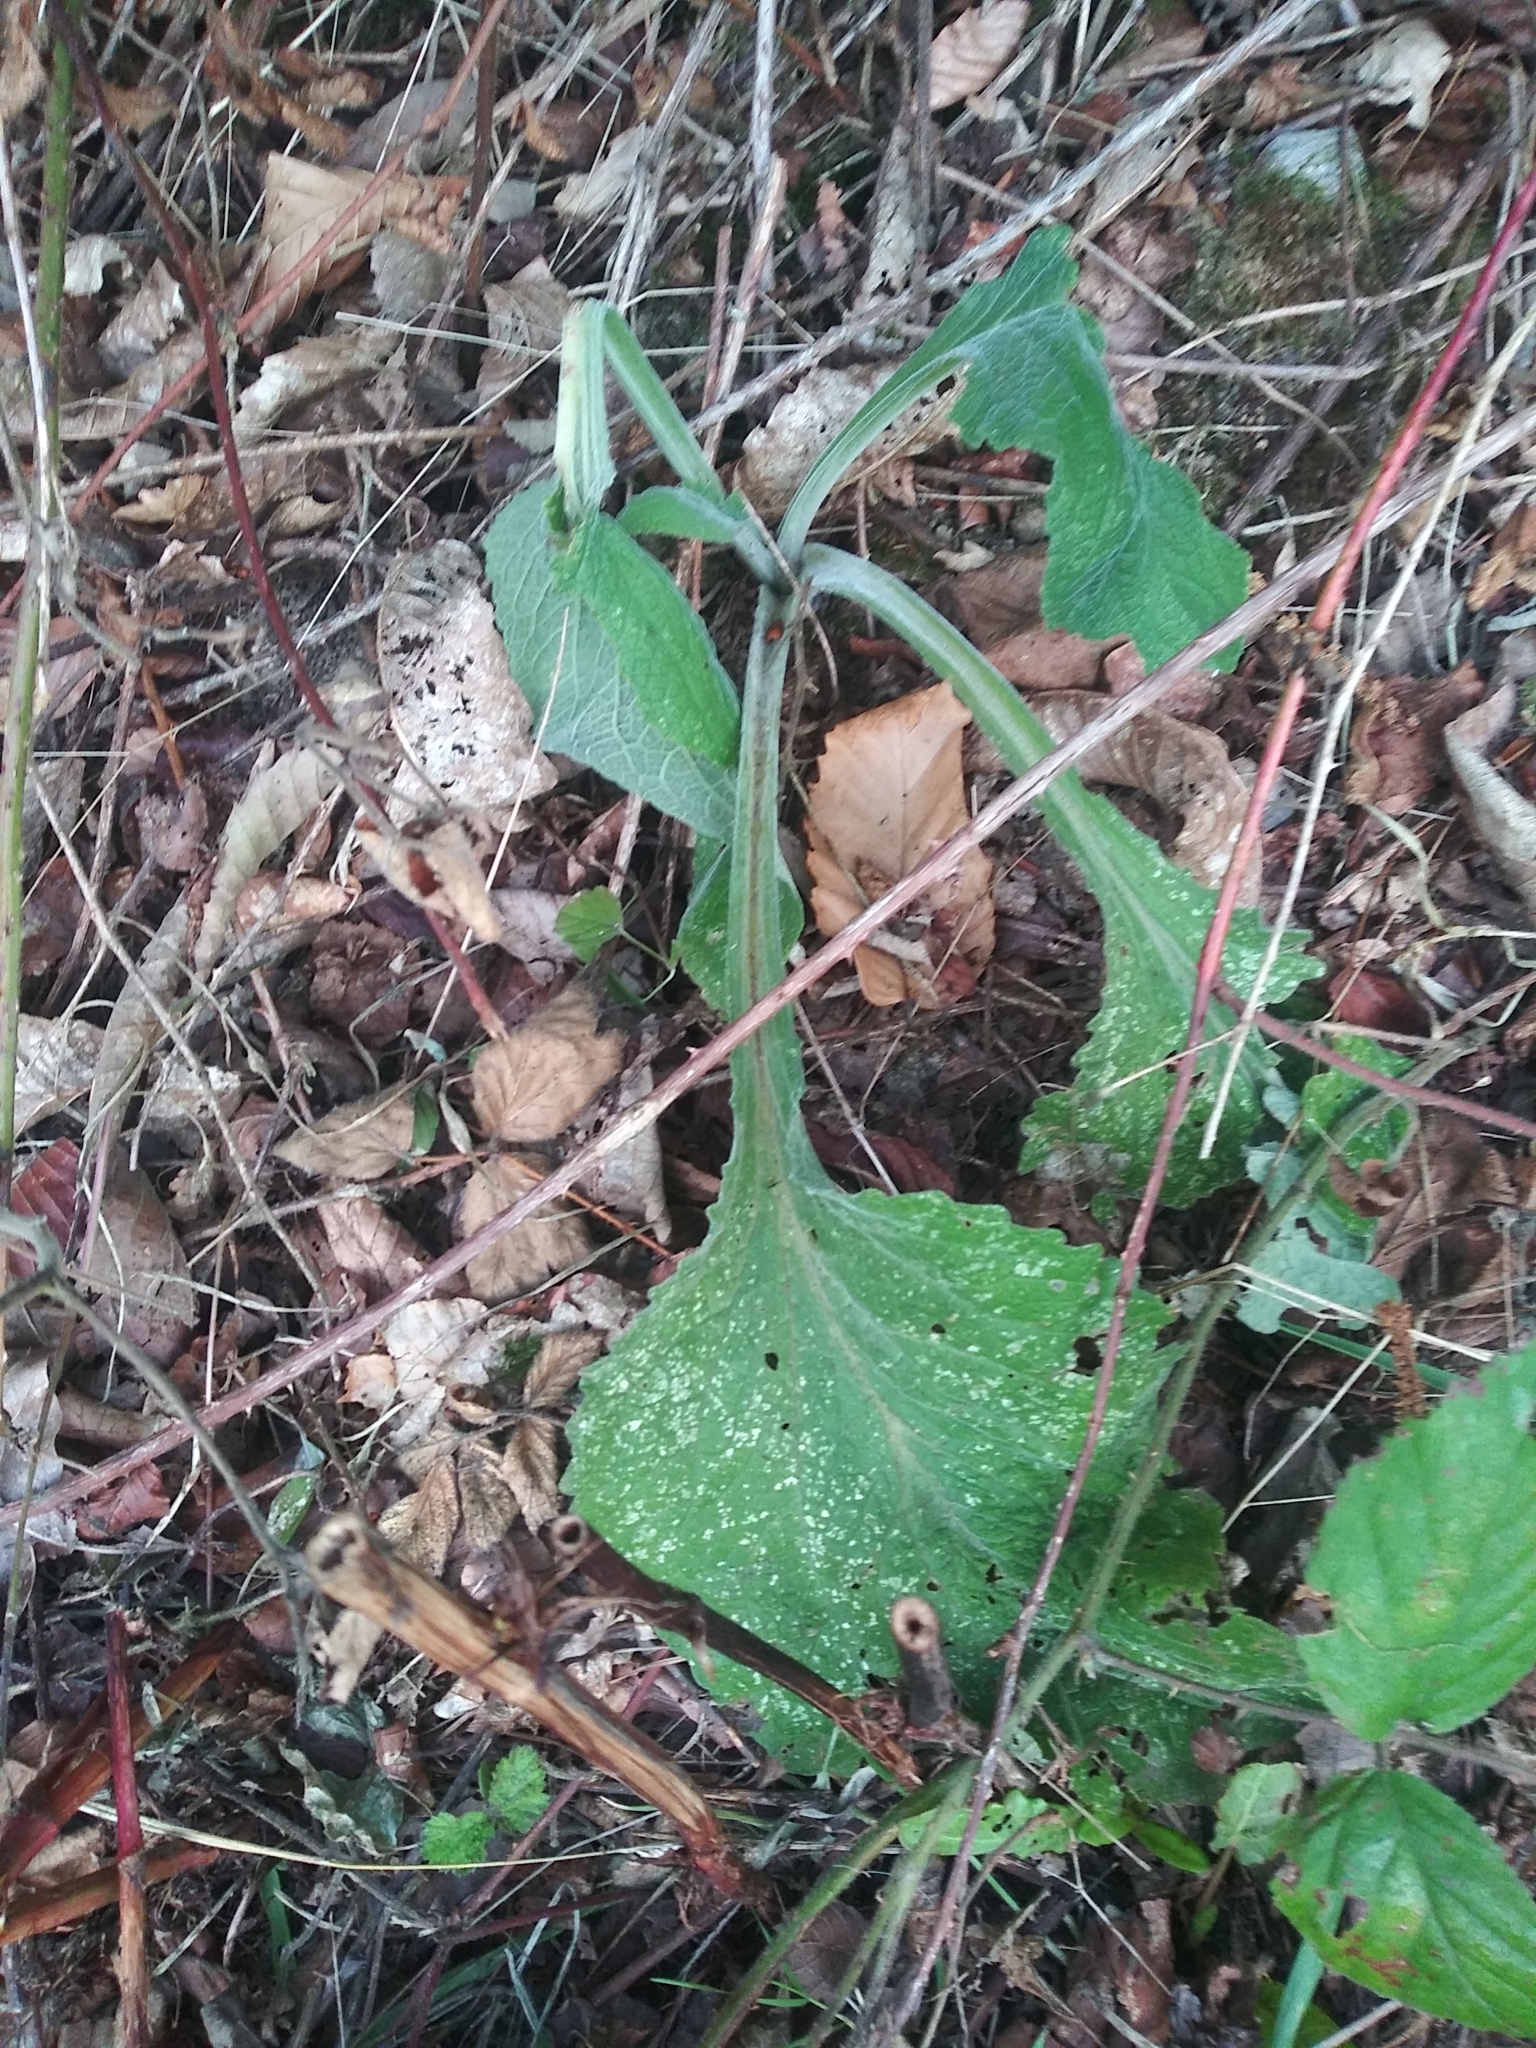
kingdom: Plantae
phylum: Tracheophyta
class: Magnoliopsida
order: Lamiales
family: Plantaginaceae
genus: Digitalis
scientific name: Digitalis purpurea
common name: Foxglove
